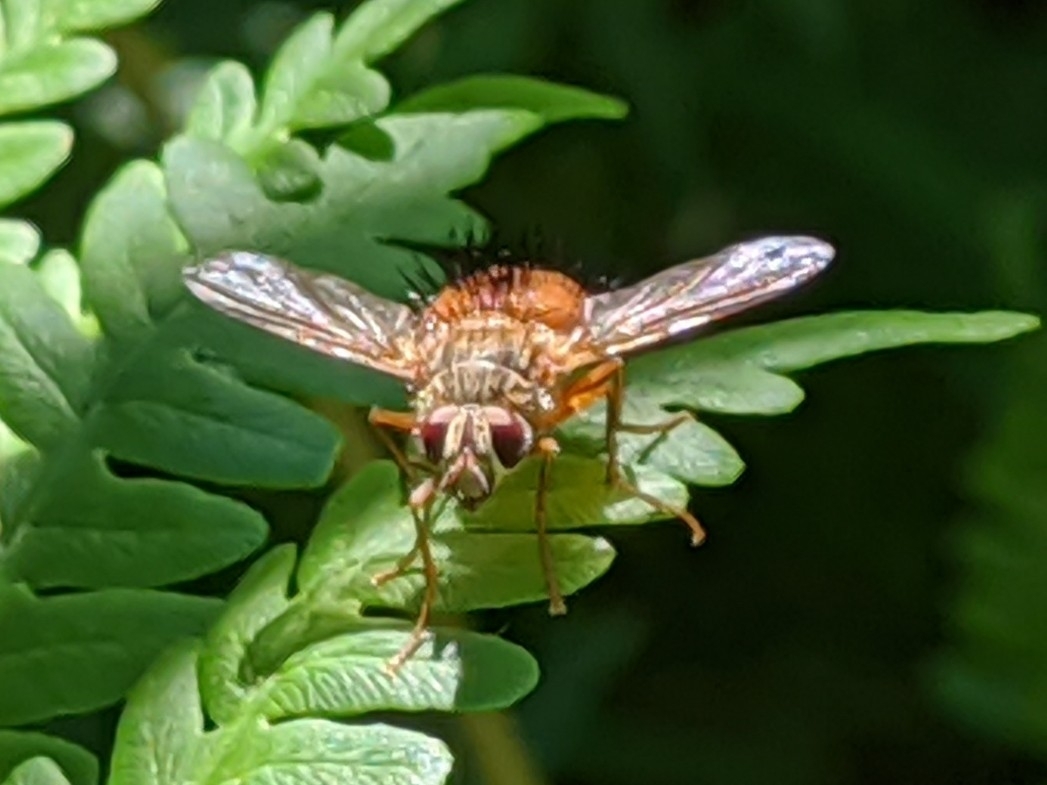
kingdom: Animalia
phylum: Arthropoda
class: Insecta
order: Diptera
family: Tachinidae
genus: Hystricia
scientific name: Hystricia abrupta
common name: Tomato bristle fly
